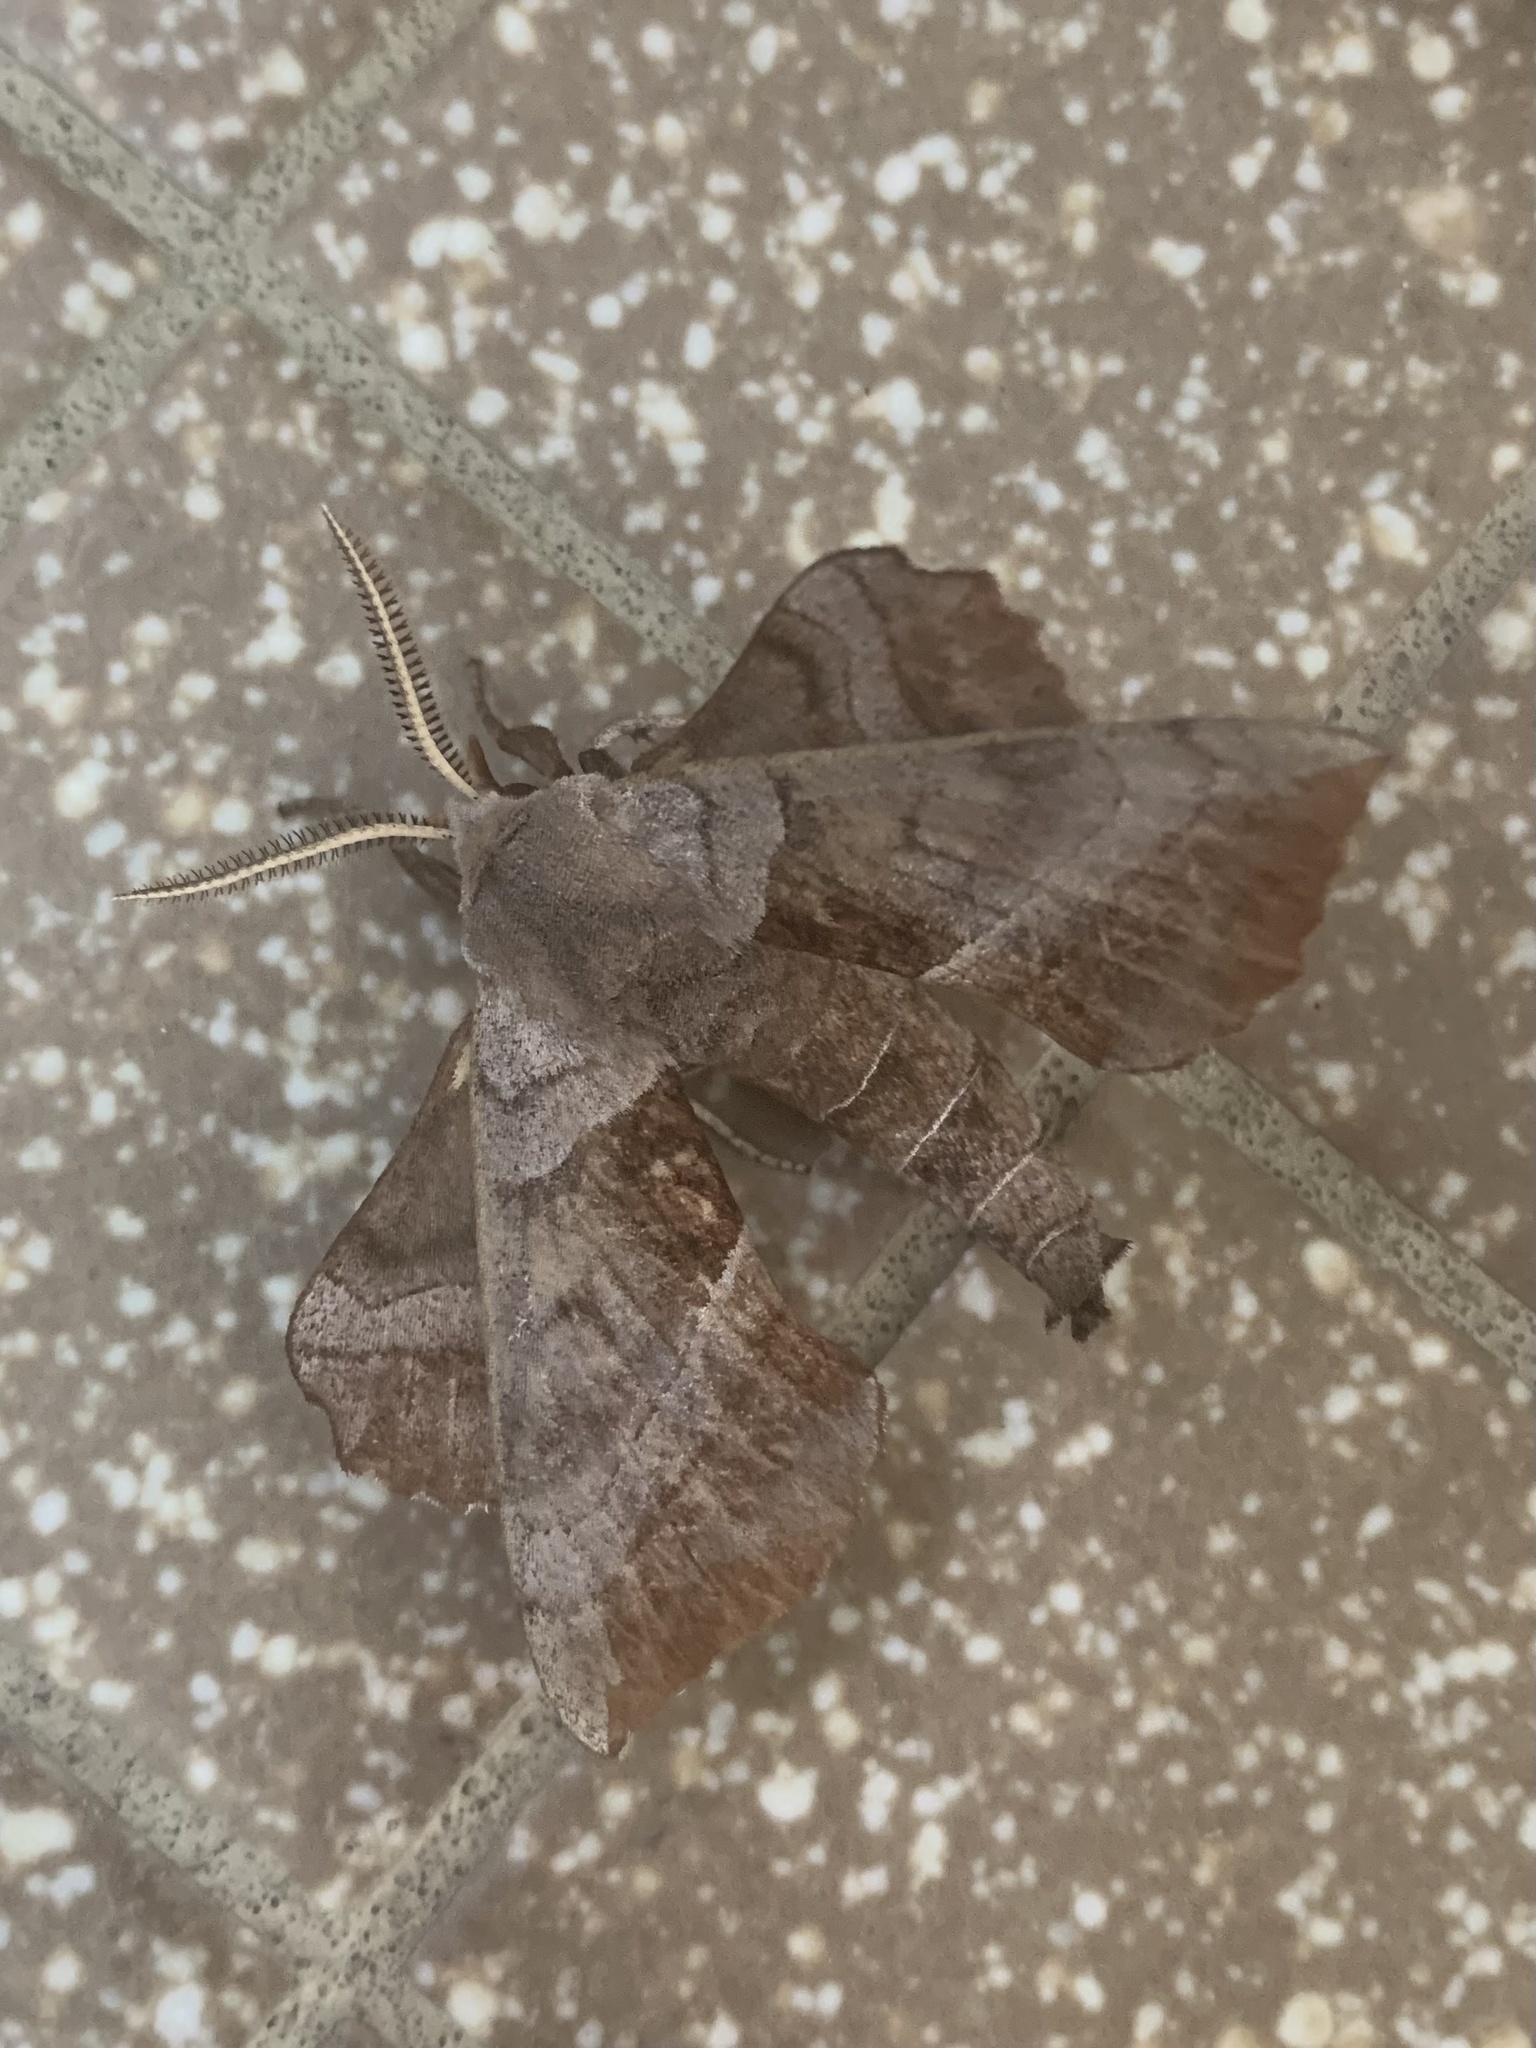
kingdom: Animalia
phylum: Arthropoda
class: Insecta
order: Lepidoptera
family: Sphingidae
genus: Amorpha
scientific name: Amorpha juglandis
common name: Walnut sphinx
